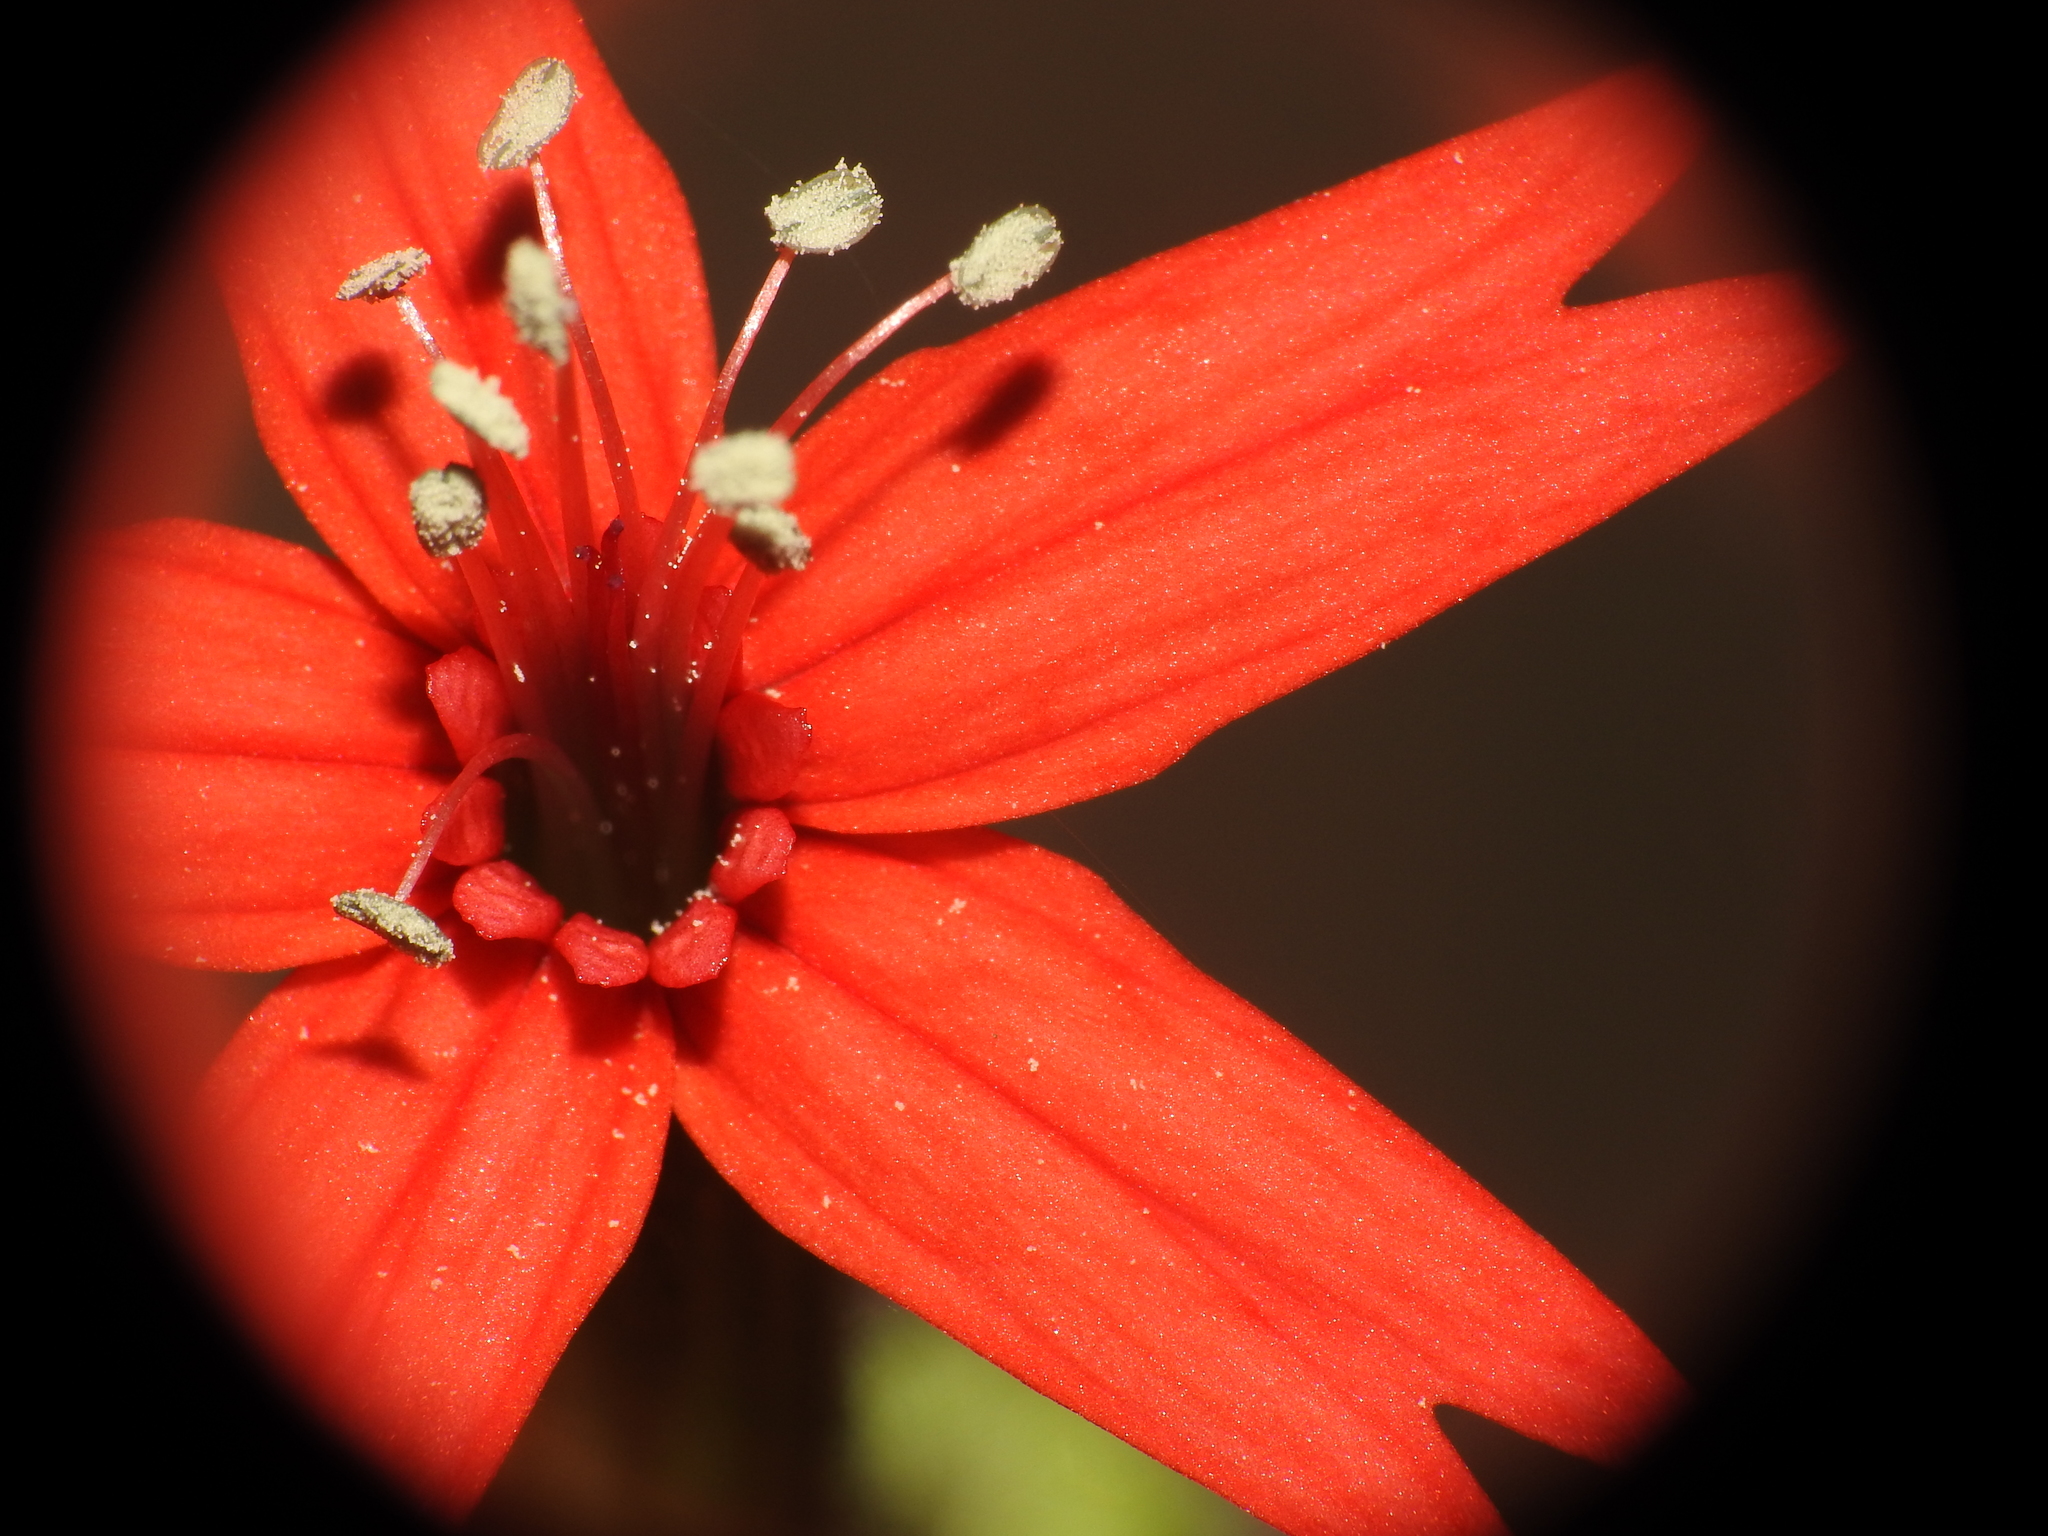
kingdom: Plantae
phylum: Tracheophyta
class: Magnoliopsida
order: Caryophyllales
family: Caryophyllaceae
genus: Silene
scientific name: Silene virginica
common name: Fire-pink
